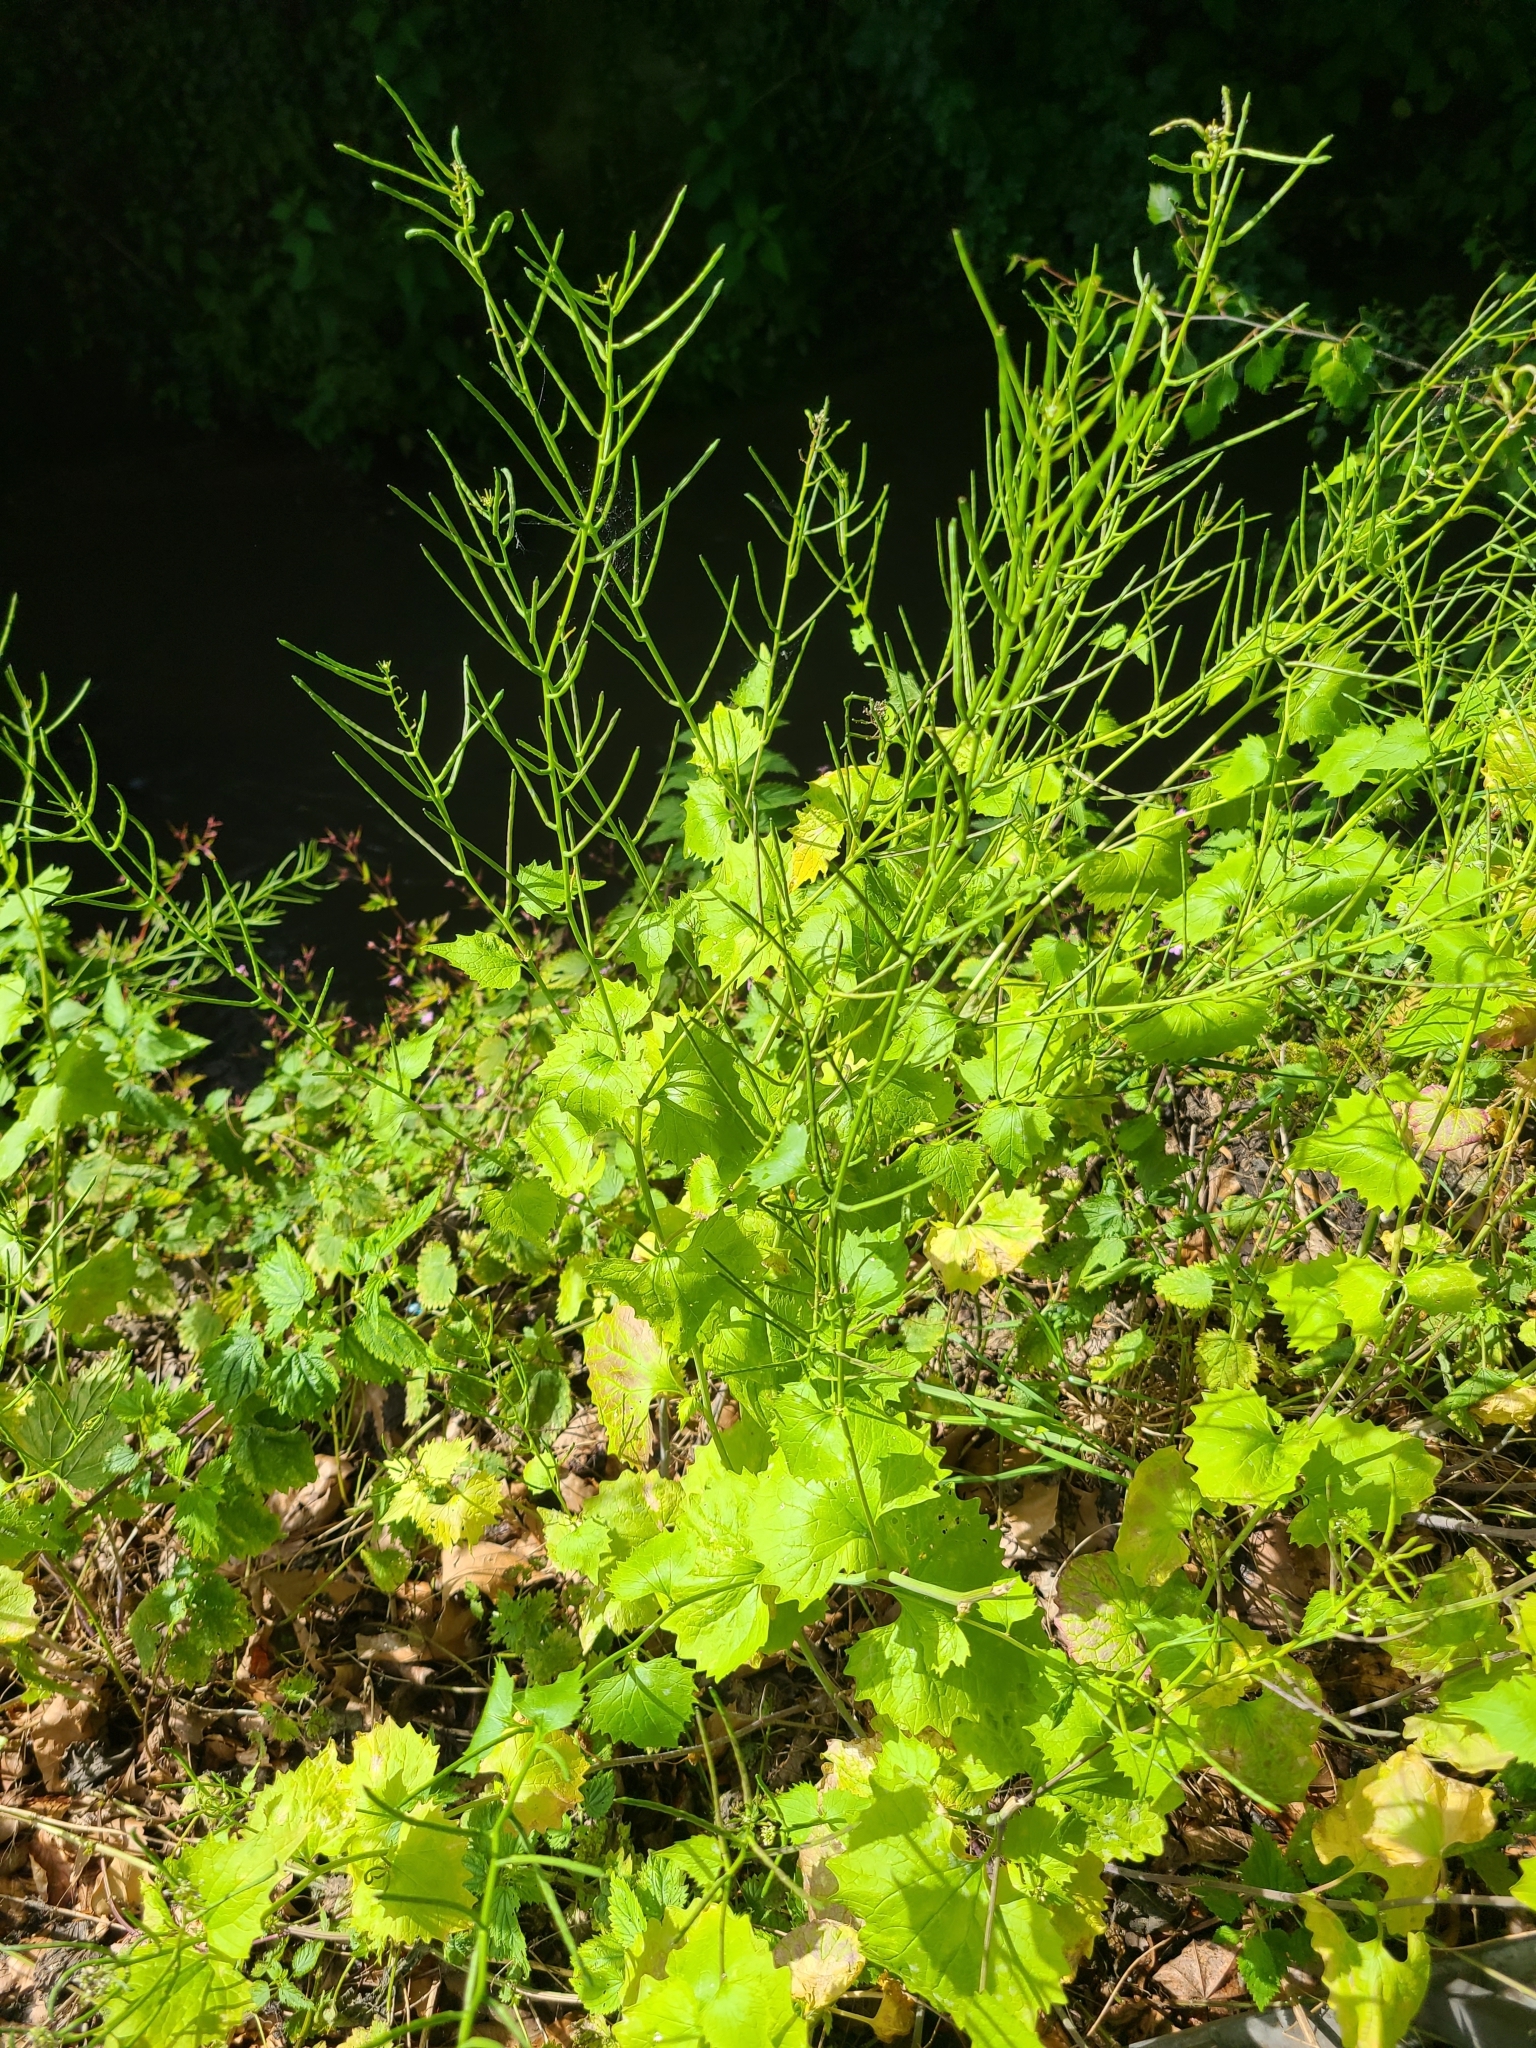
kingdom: Plantae
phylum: Tracheophyta
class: Magnoliopsida
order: Brassicales
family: Brassicaceae
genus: Alliaria
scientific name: Alliaria petiolata
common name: Garlic mustard
